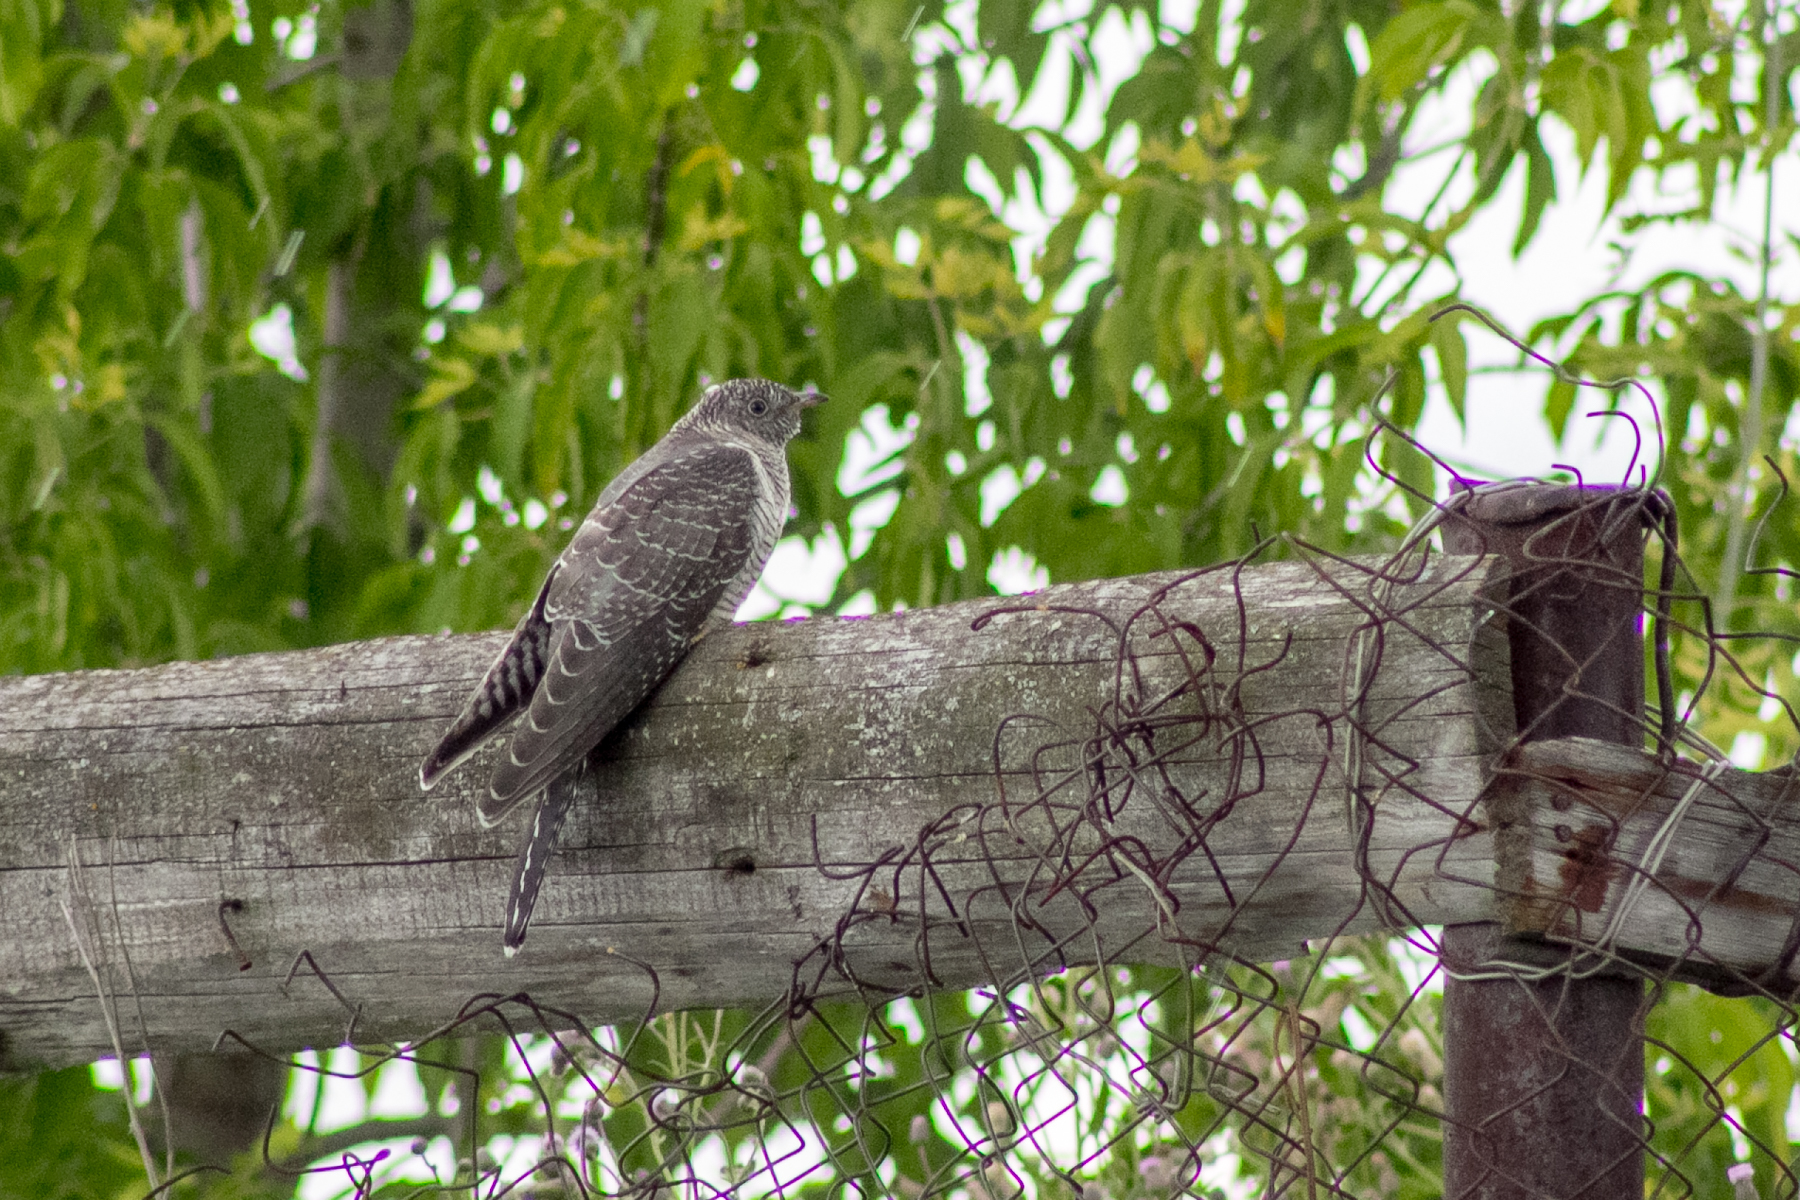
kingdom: Animalia
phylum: Chordata
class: Aves
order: Cuculiformes
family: Cuculidae
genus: Cuculus
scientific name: Cuculus canorus
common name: Common cuckoo
